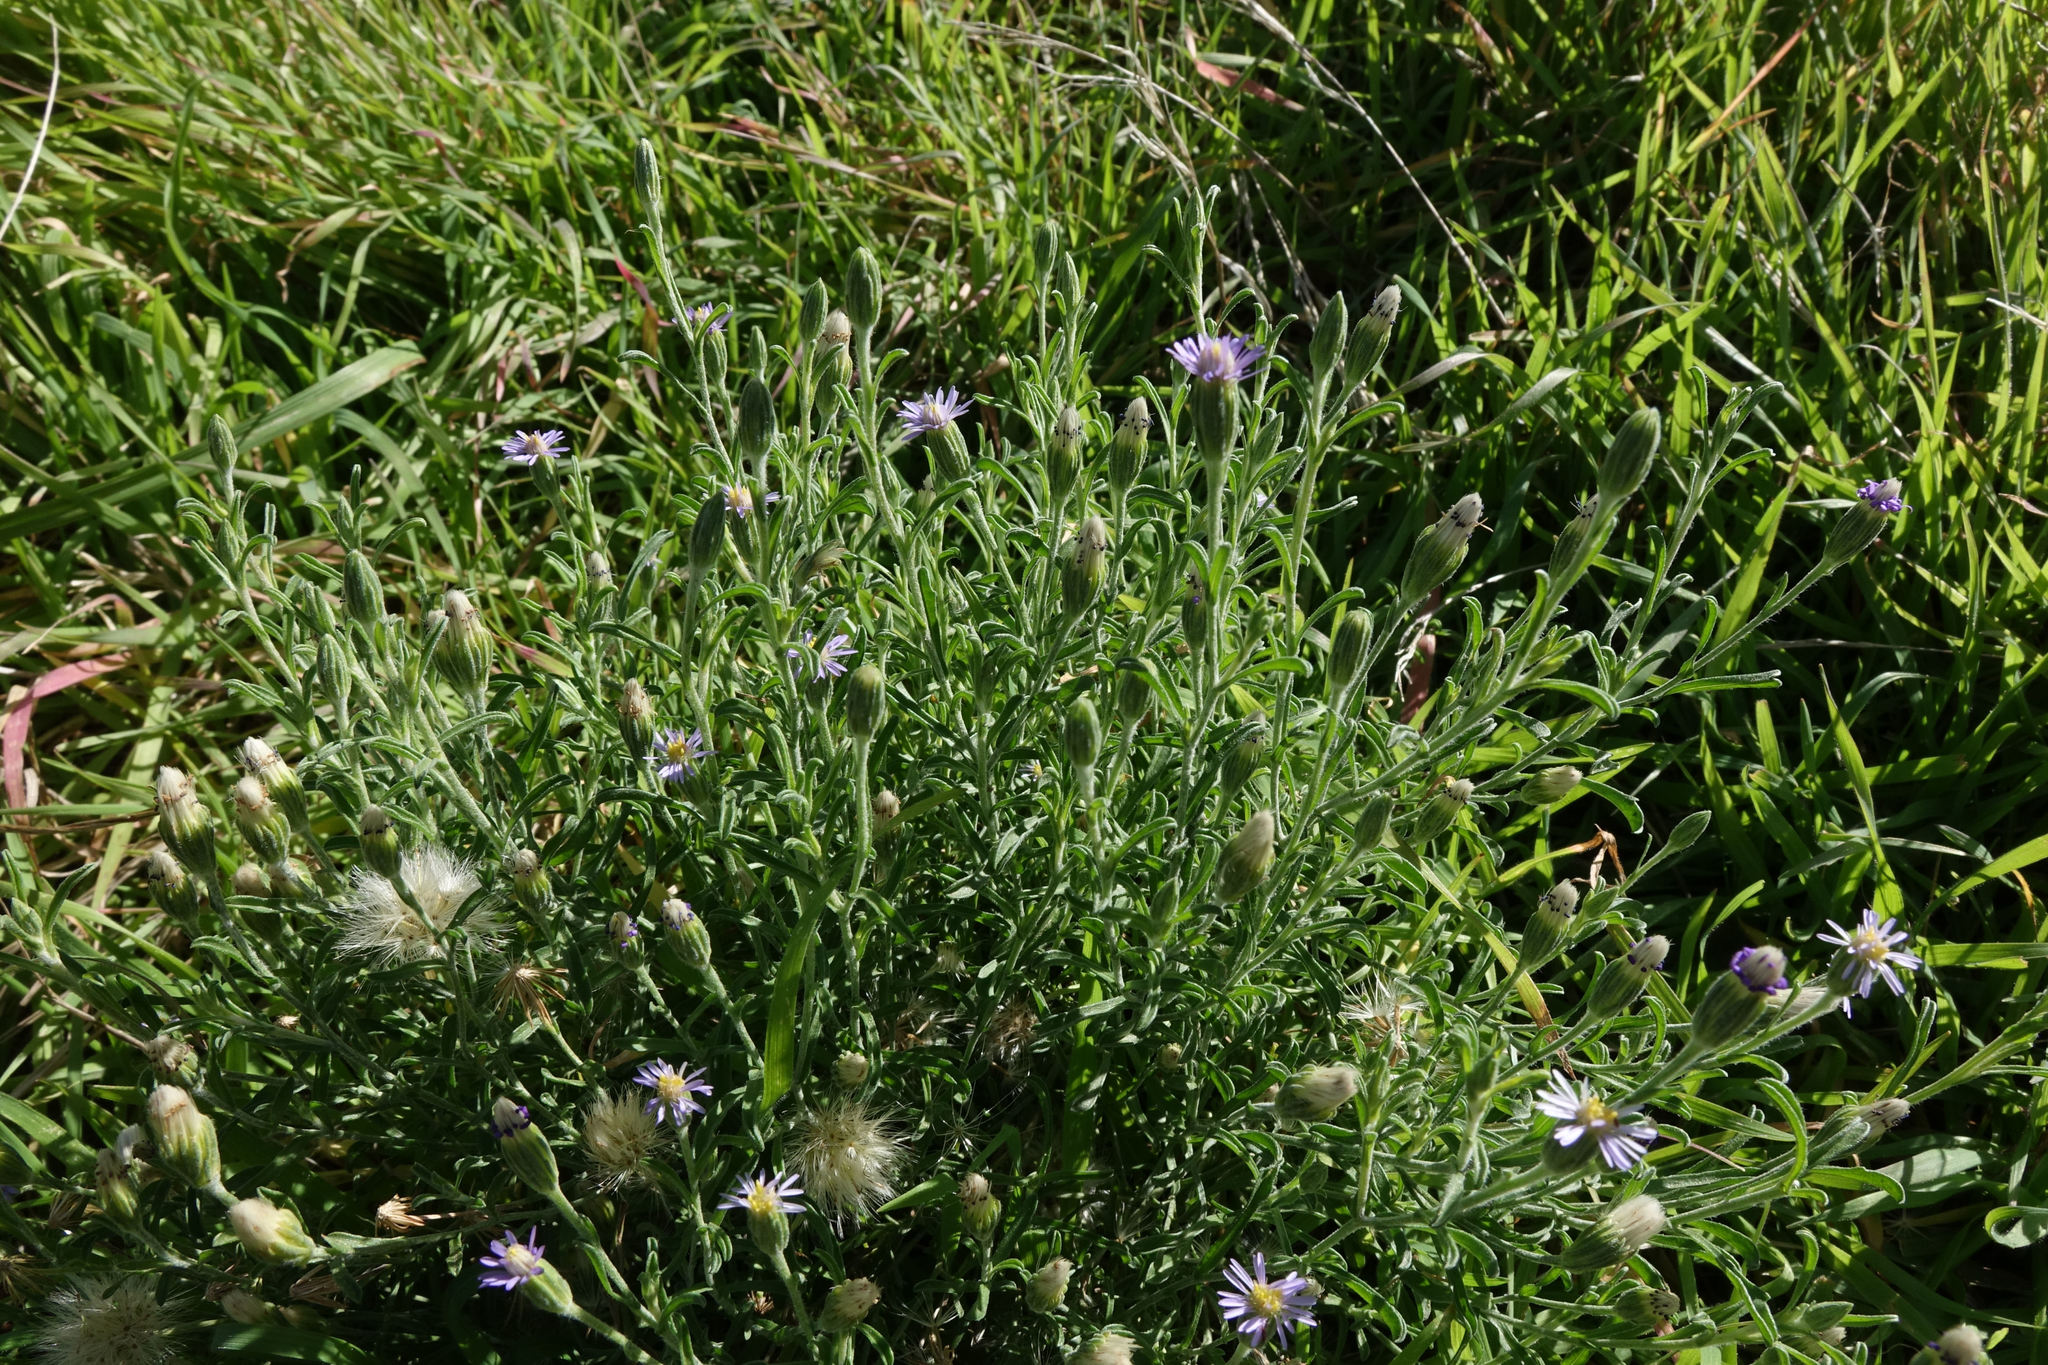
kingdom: Plantae
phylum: Tracheophyta
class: Magnoliopsida
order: Asterales
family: Asteraceae
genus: Vittadinia
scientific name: Vittadinia gracilis
